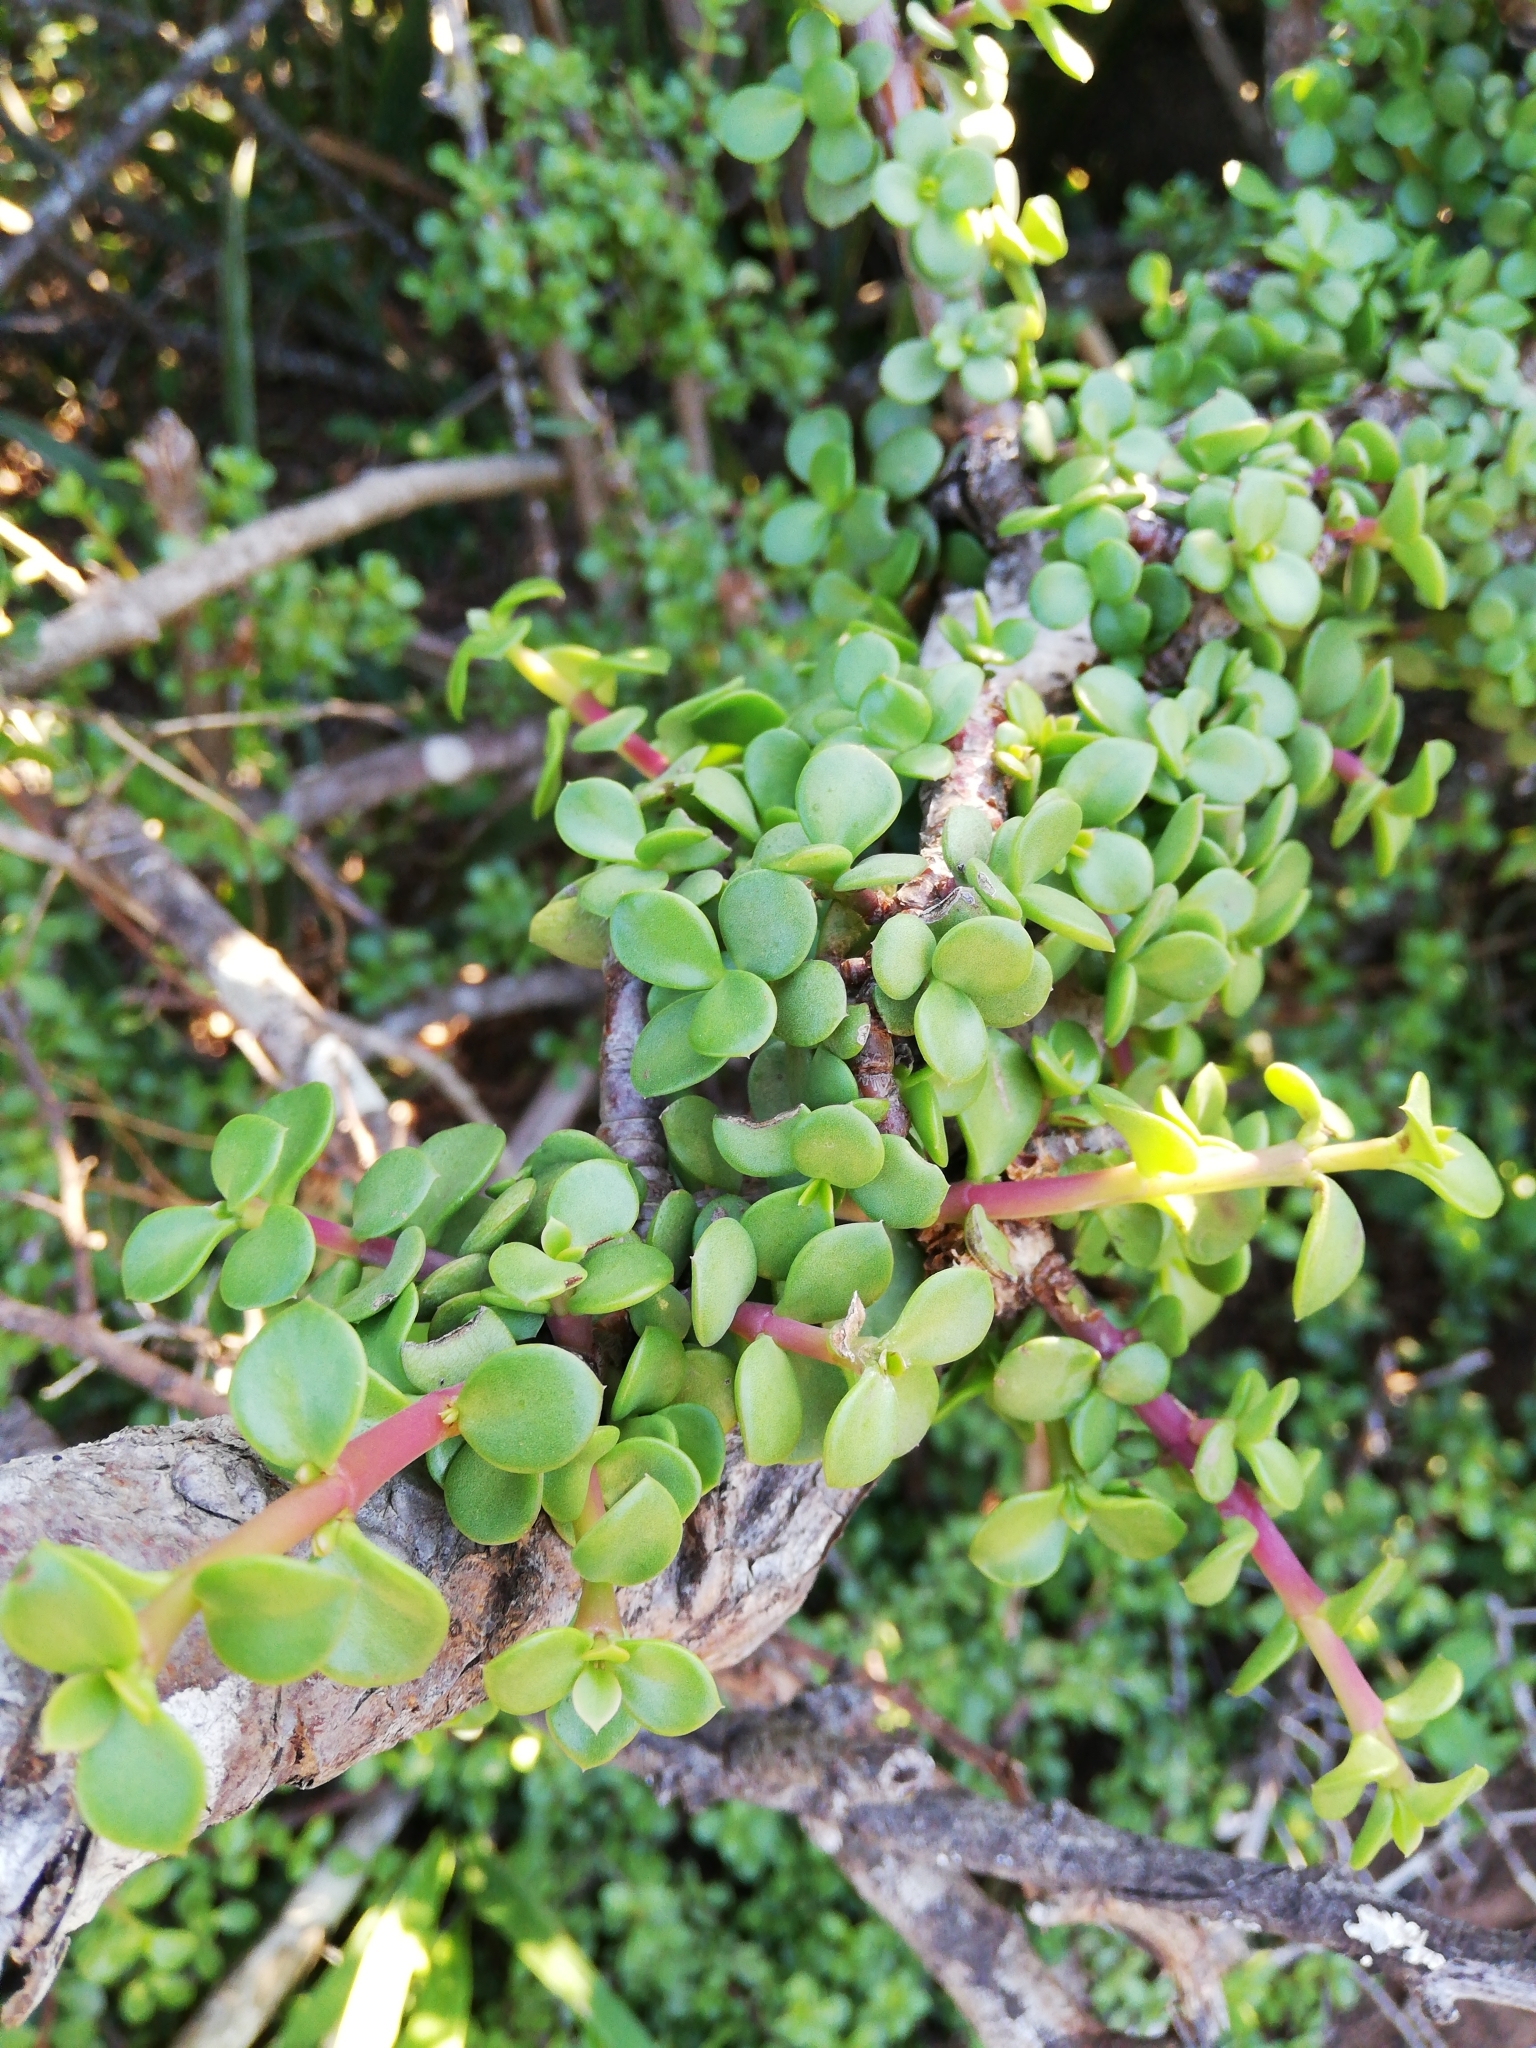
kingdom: Plantae
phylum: Tracheophyta
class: Magnoliopsida
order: Caryophyllales
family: Didiereaceae
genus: Portulacaria
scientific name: Portulacaria afra
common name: Elephant-bush
